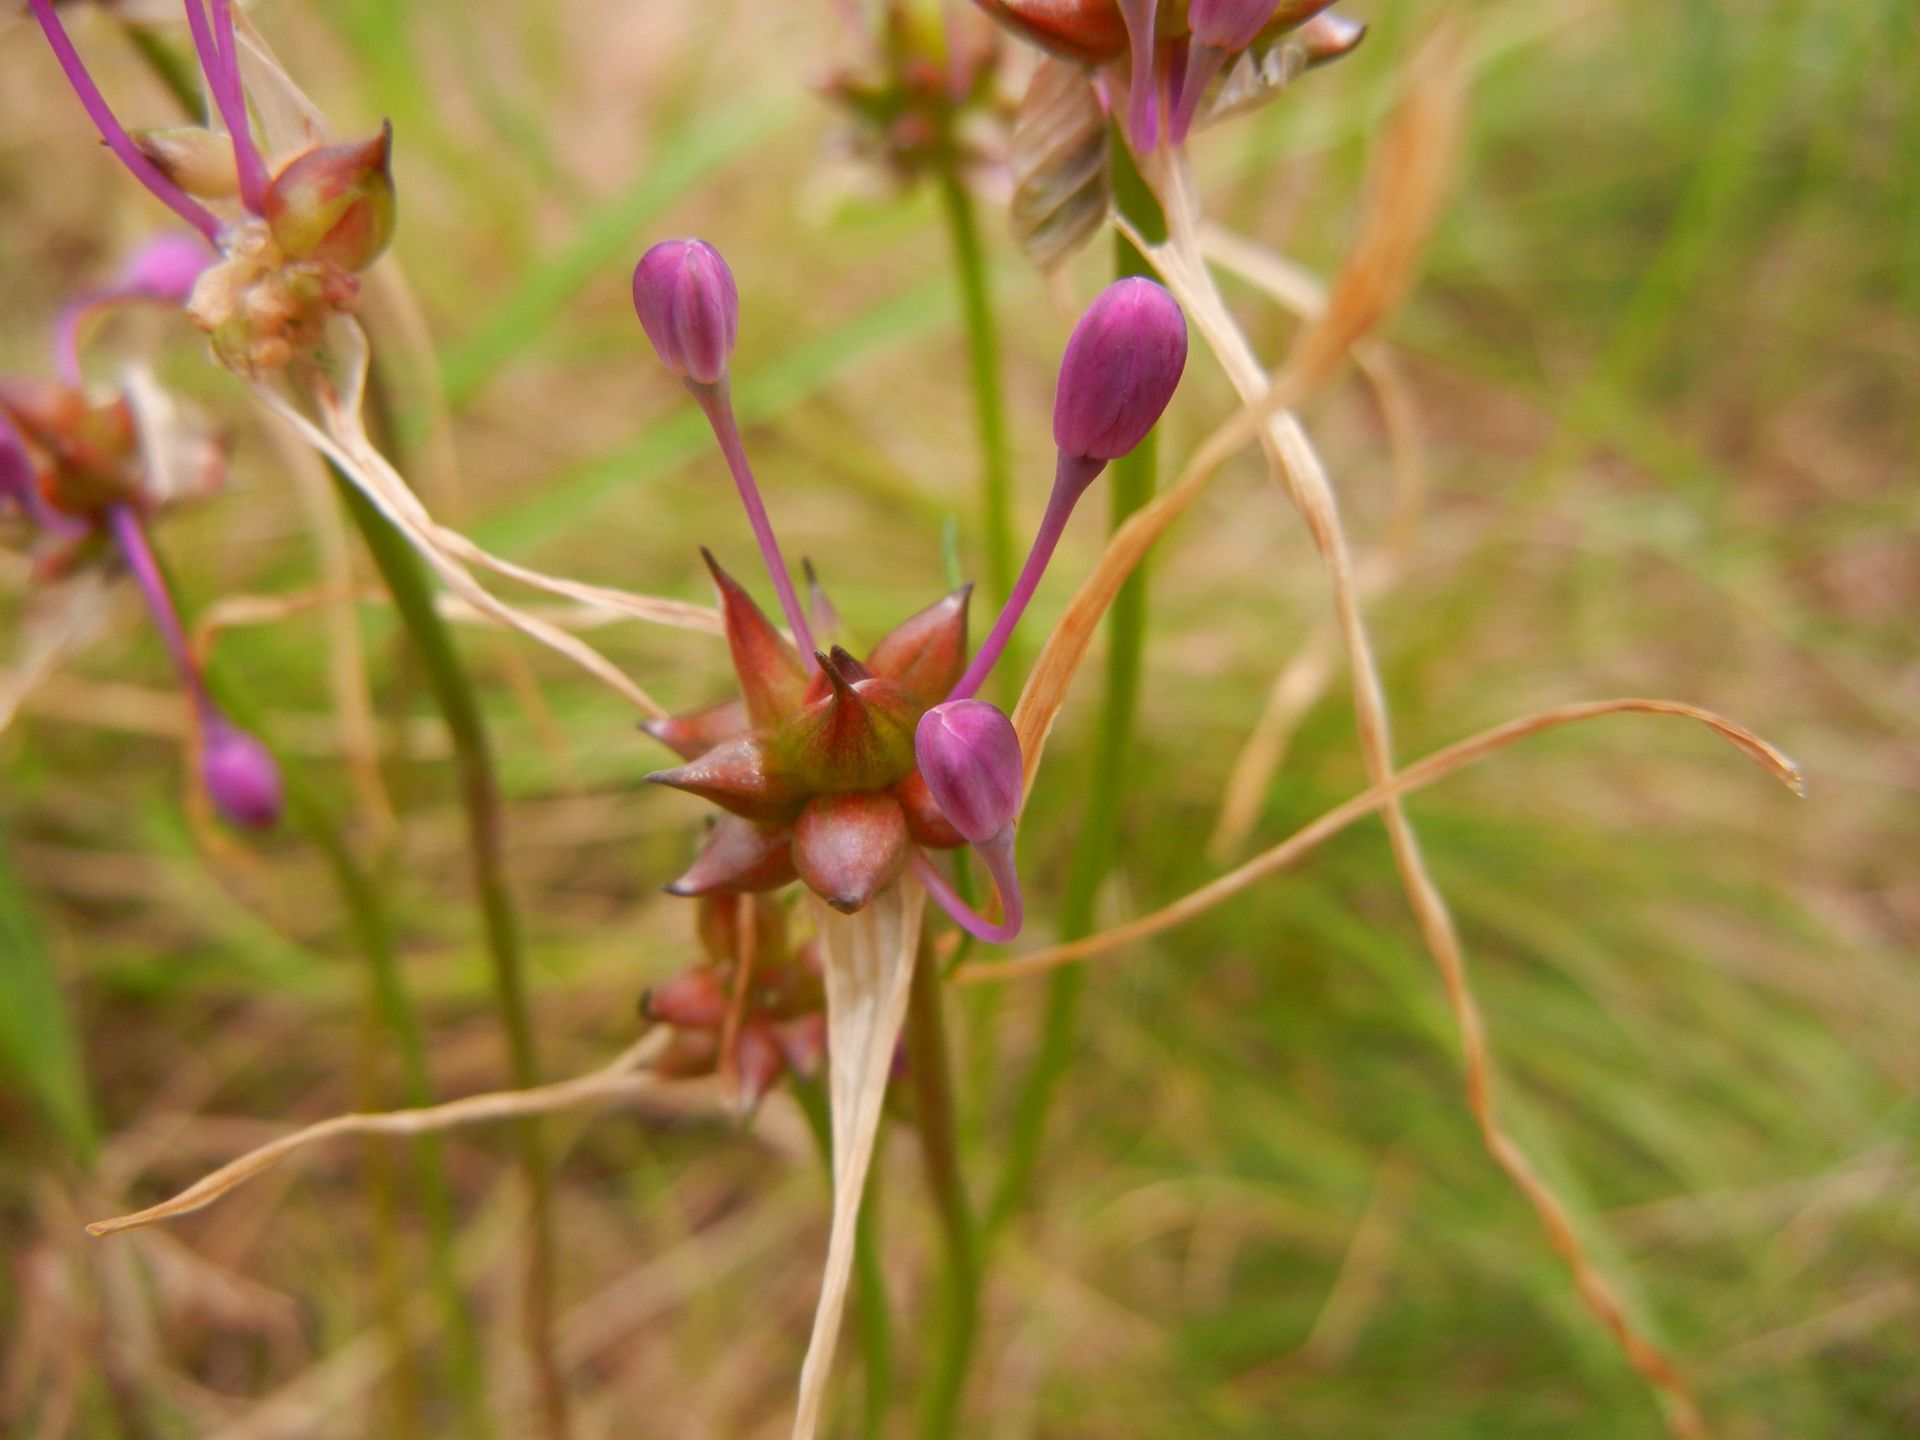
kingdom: Plantae
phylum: Tracheophyta
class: Liliopsida
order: Asparagales
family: Amaryllidaceae
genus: Allium
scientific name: Allium carinatum
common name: Keeled garlic
